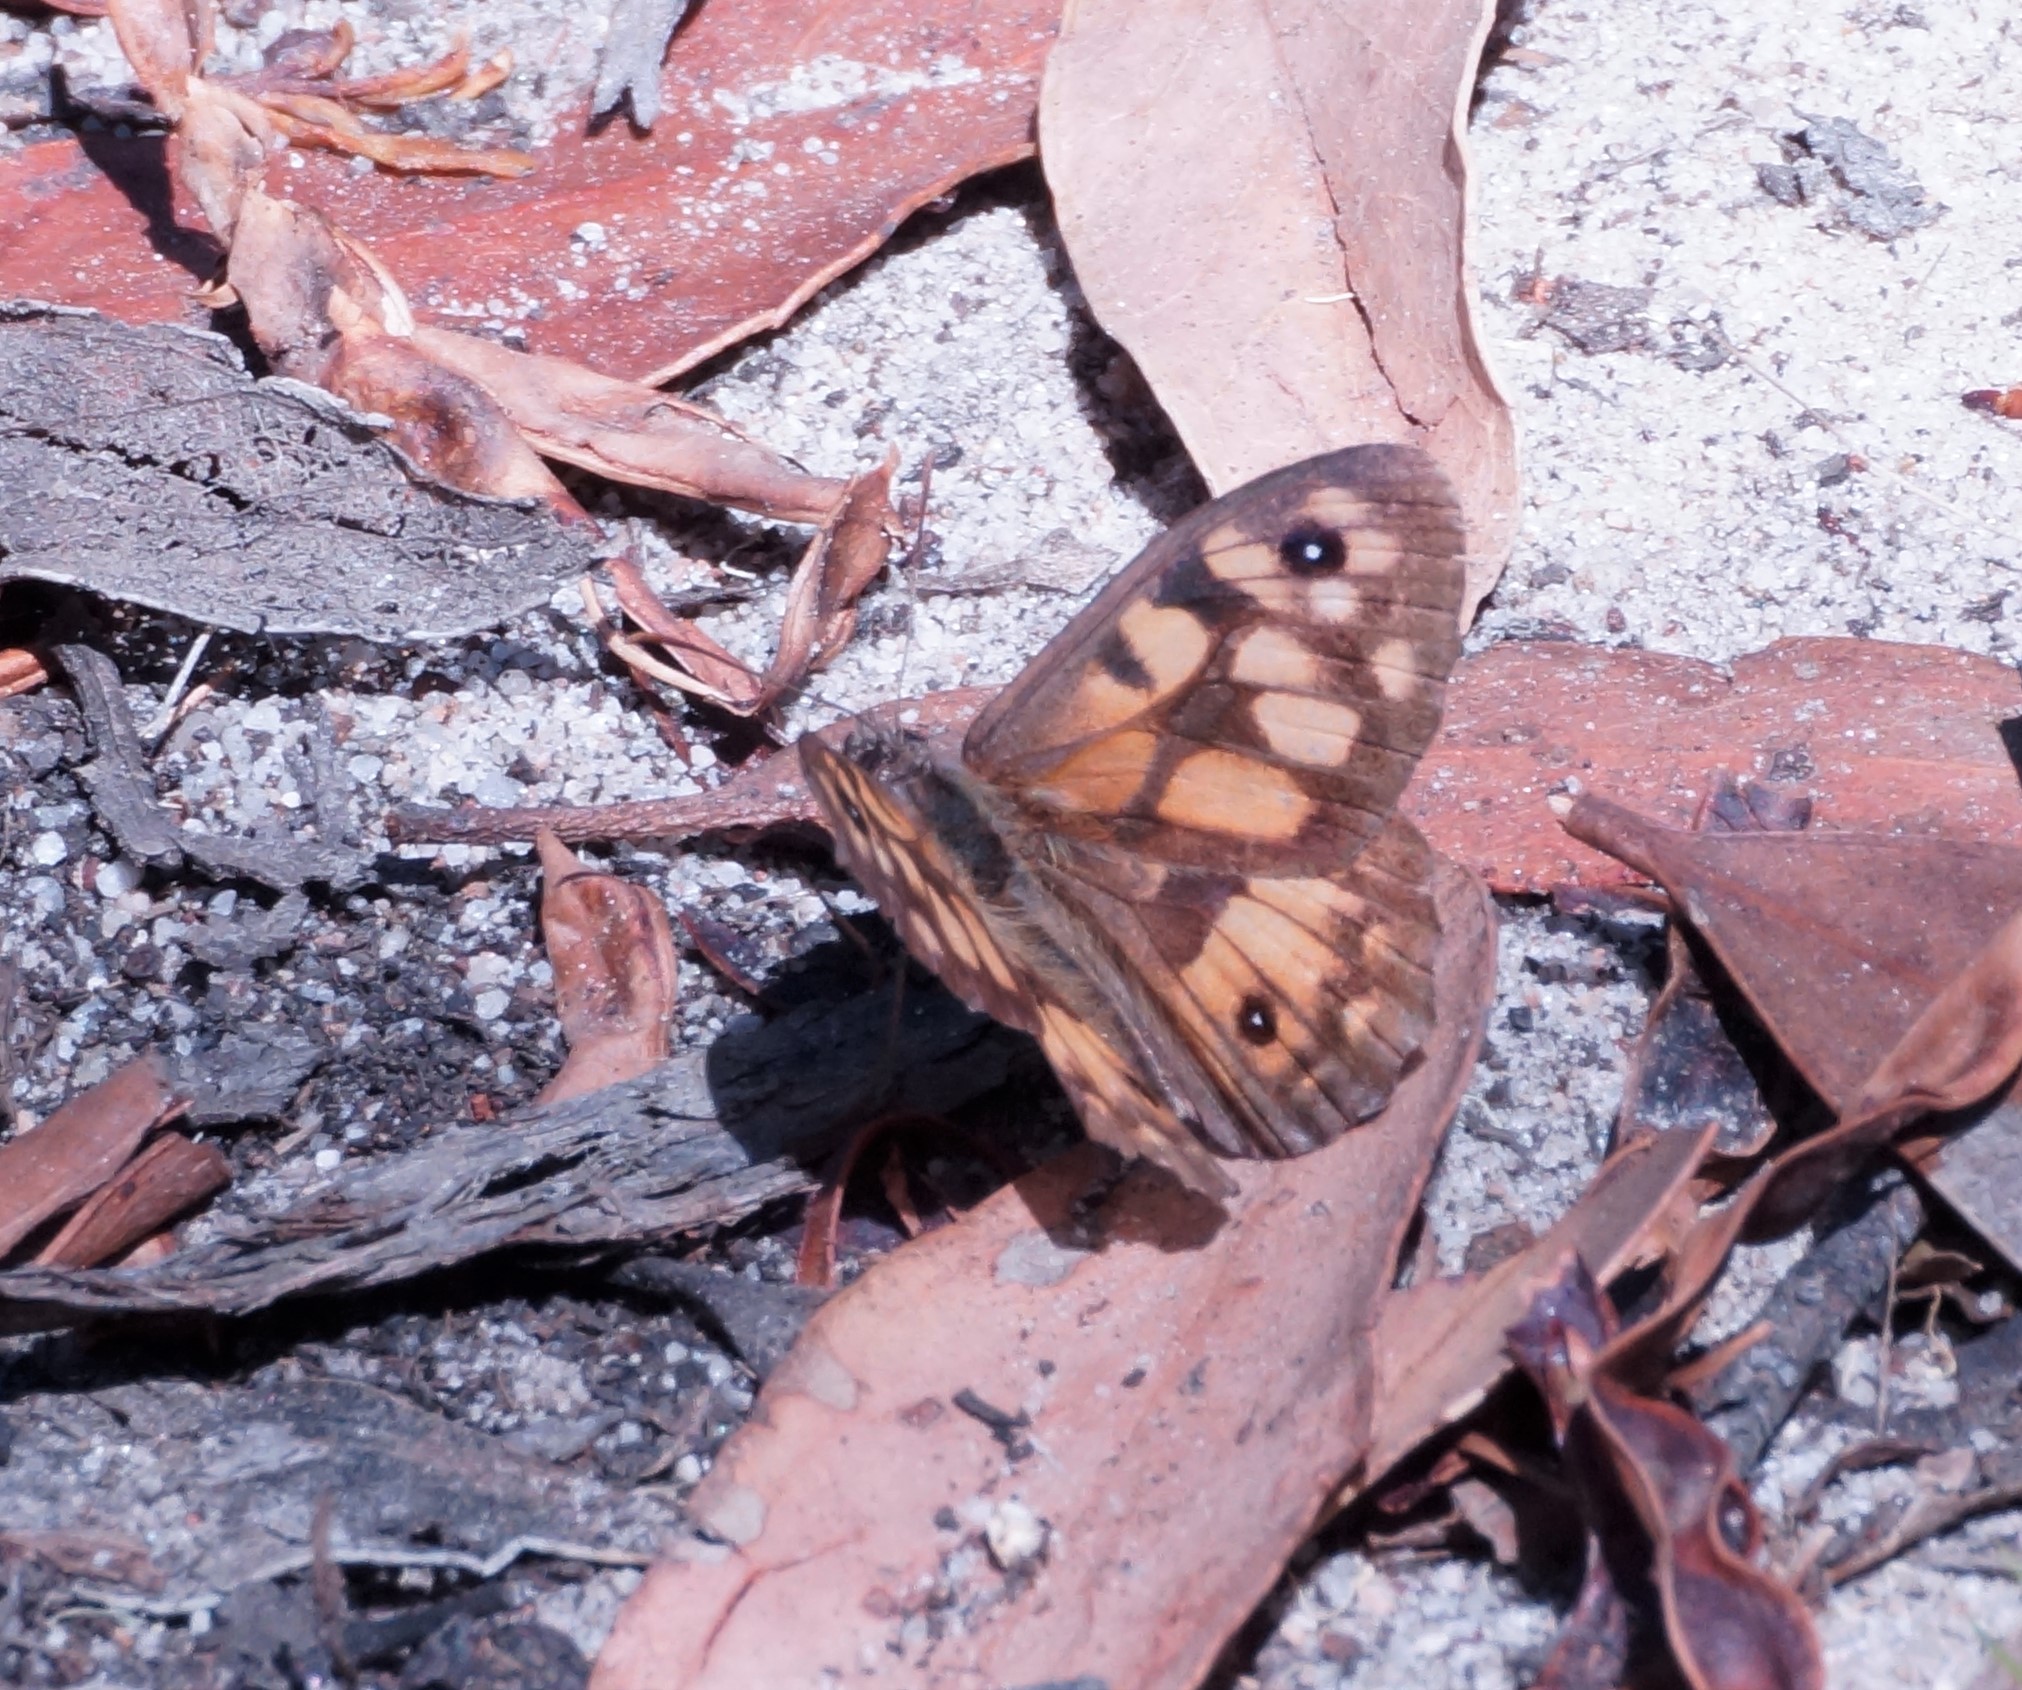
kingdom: Animalia
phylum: Arthropoda
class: Insecta
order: Lepidoptera
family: Nymphalidae
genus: Geitoneura
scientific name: Geitoneura klugii
